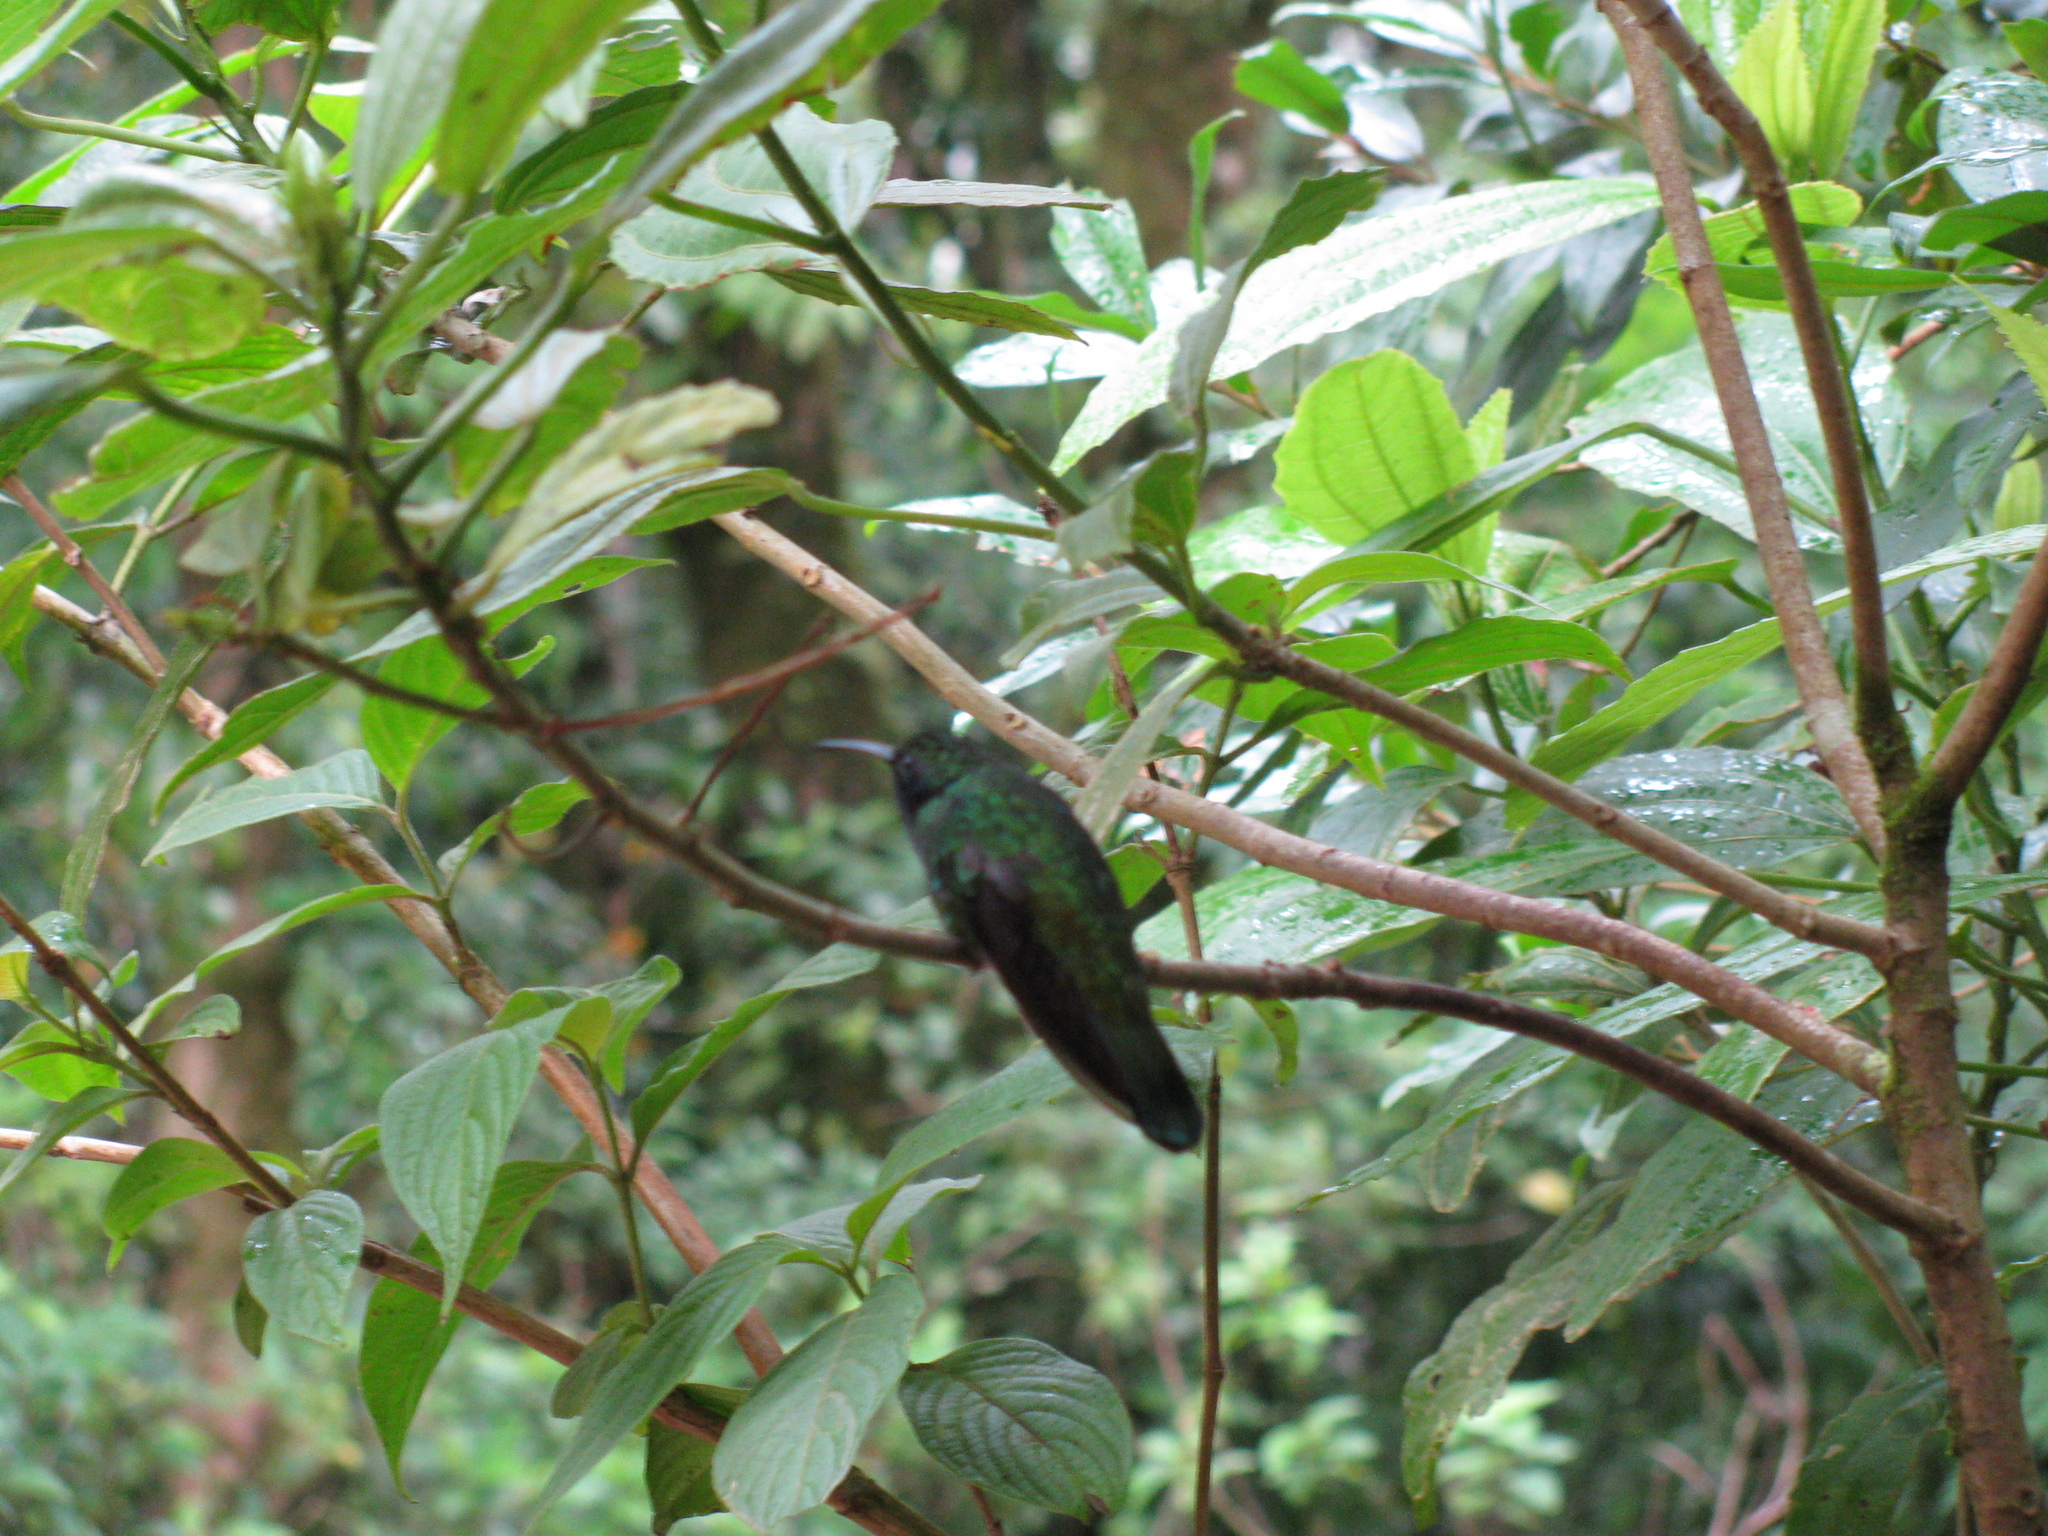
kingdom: Animalia
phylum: Chordata
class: Aves
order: Apodiformes
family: Trochilidae
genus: Colibri
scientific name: Colibri cyanotus
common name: Lesser violetear
